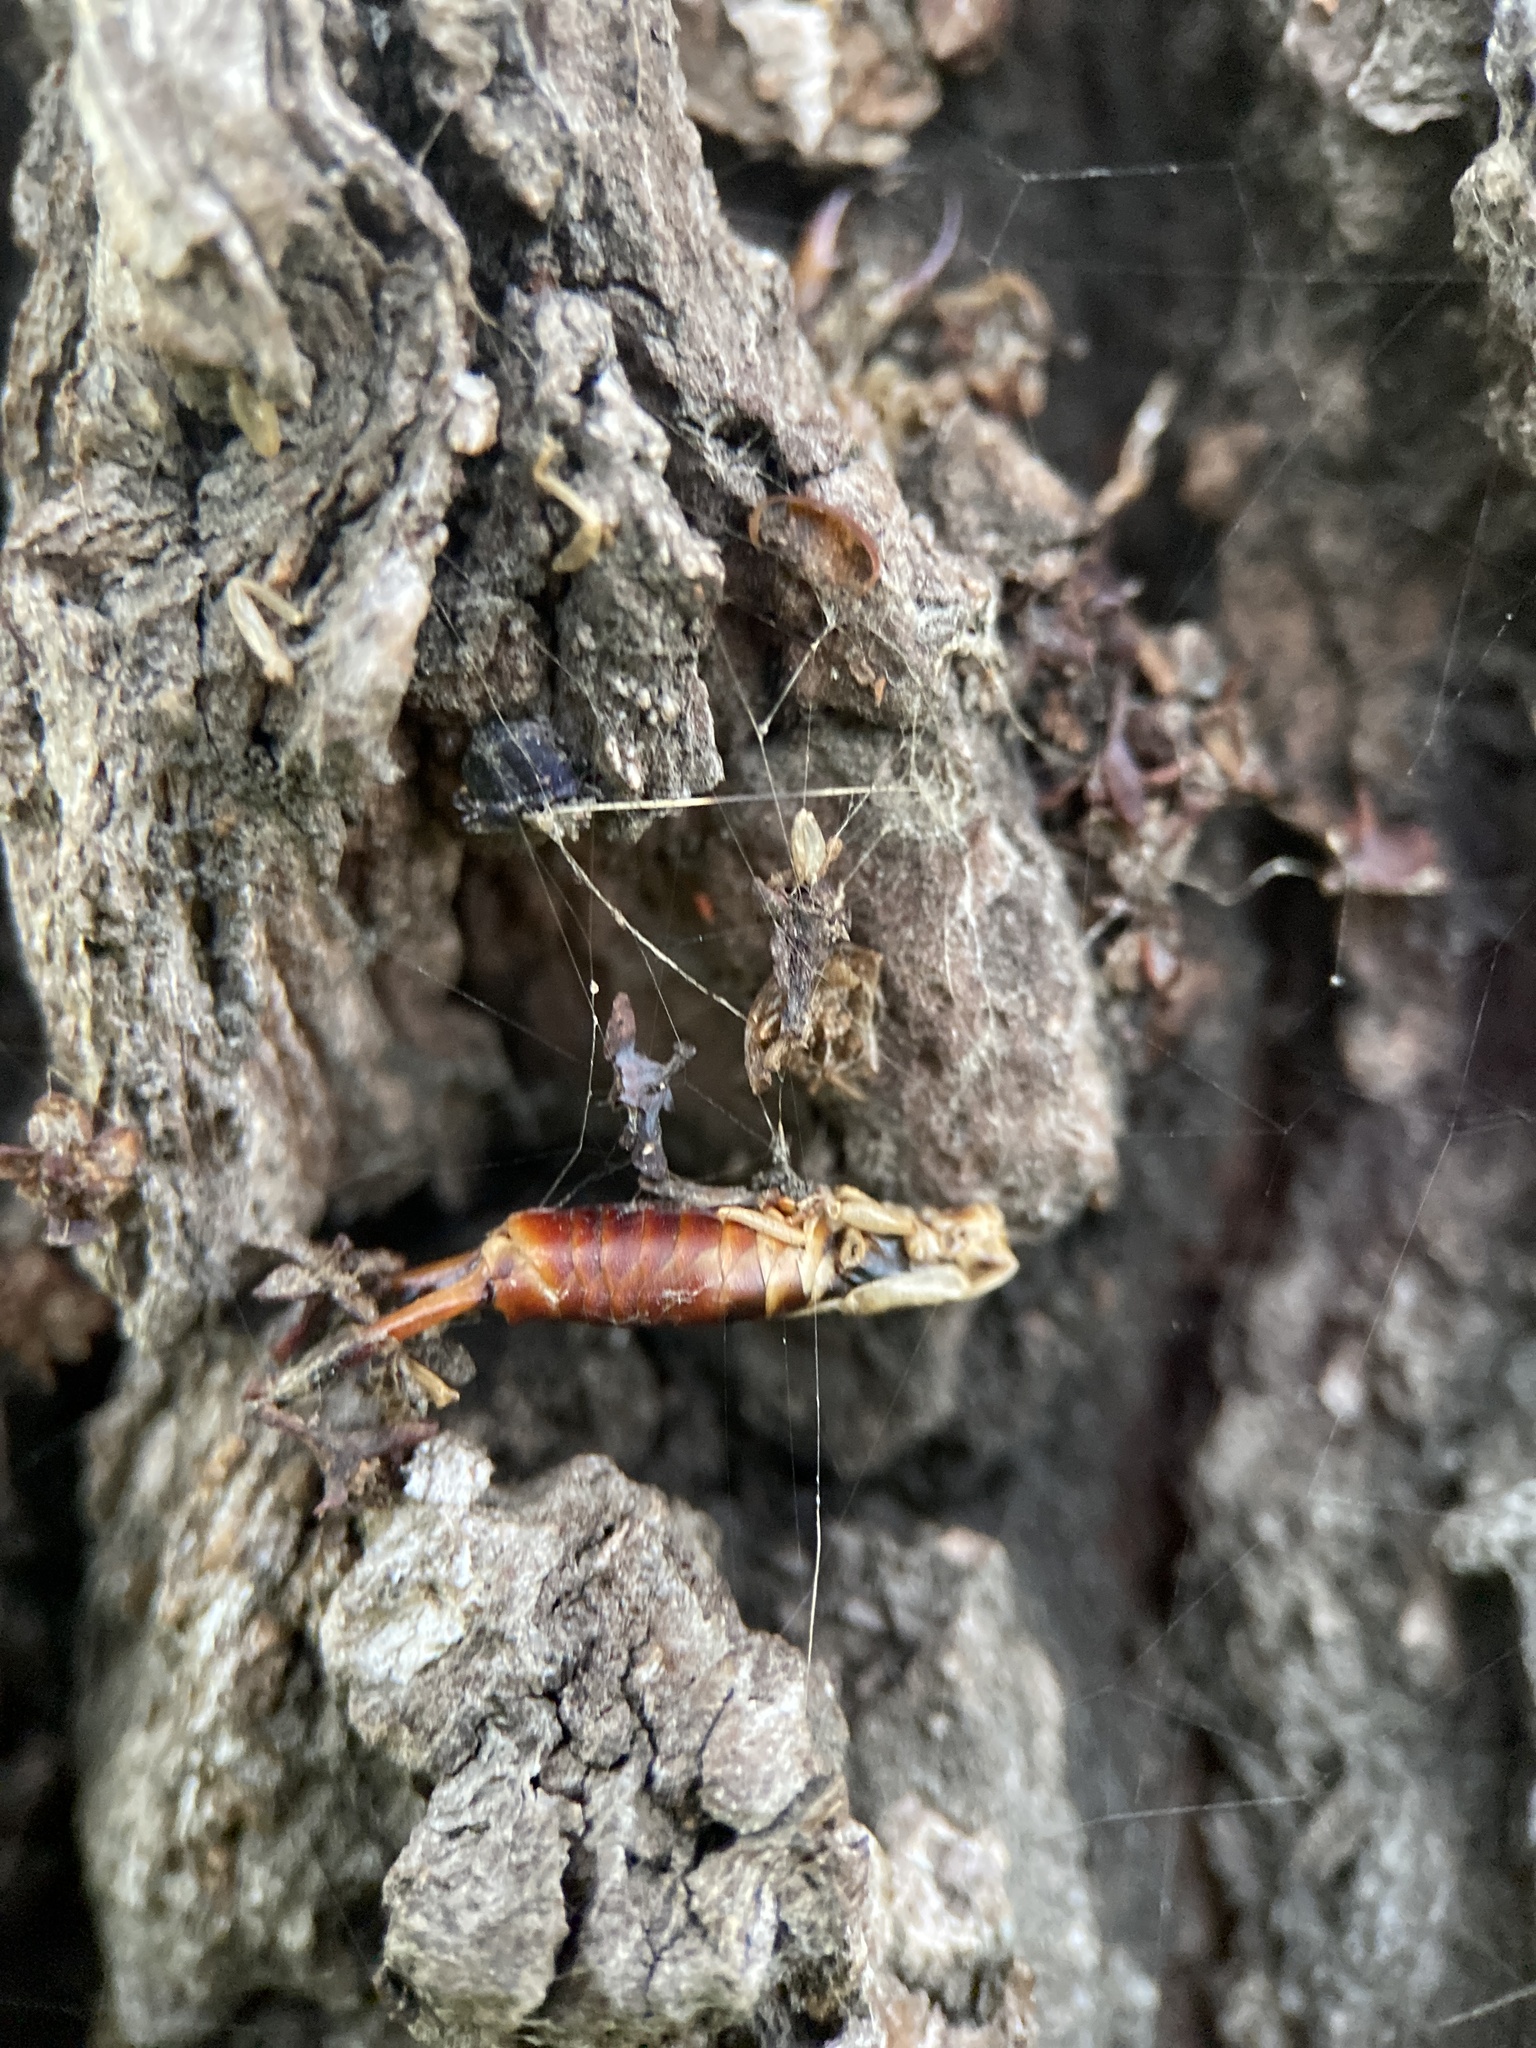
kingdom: Animalia
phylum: Arthropoda
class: Insecta
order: Dermaptera
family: Forficulidae
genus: Forficula
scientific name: Forficula dentata
